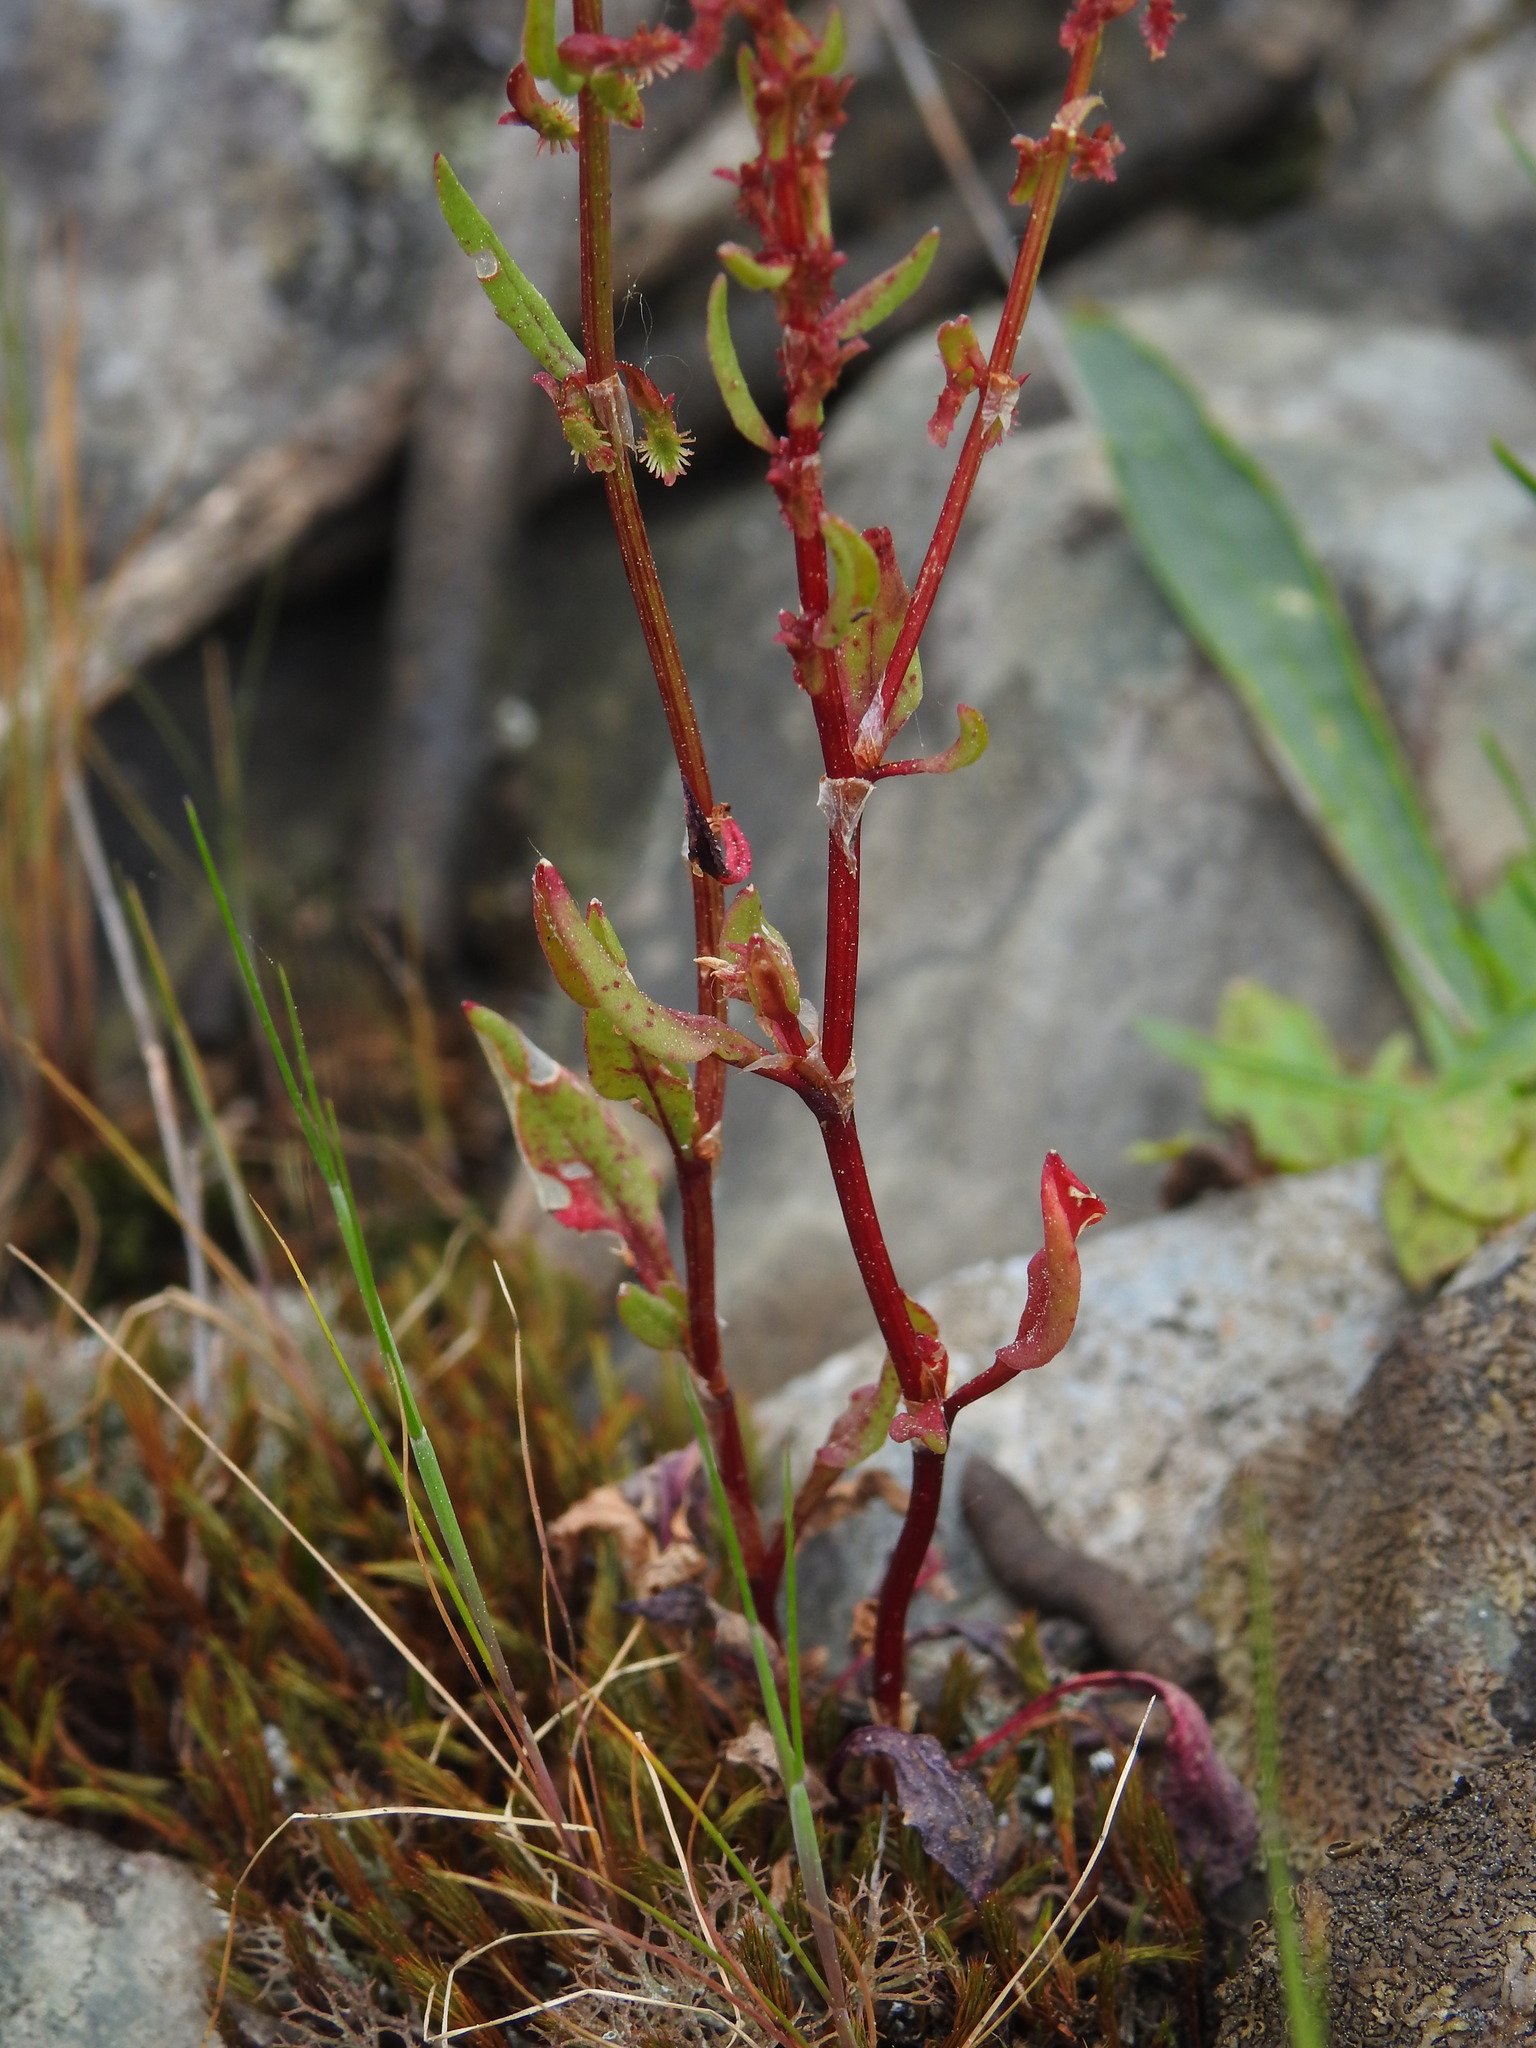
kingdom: Plantae
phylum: Tracheophyta
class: Magnoliopsida
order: Caryophyllales
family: Polygonaceae
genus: Rumex
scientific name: Rumex bucephalophorus
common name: Red dock
